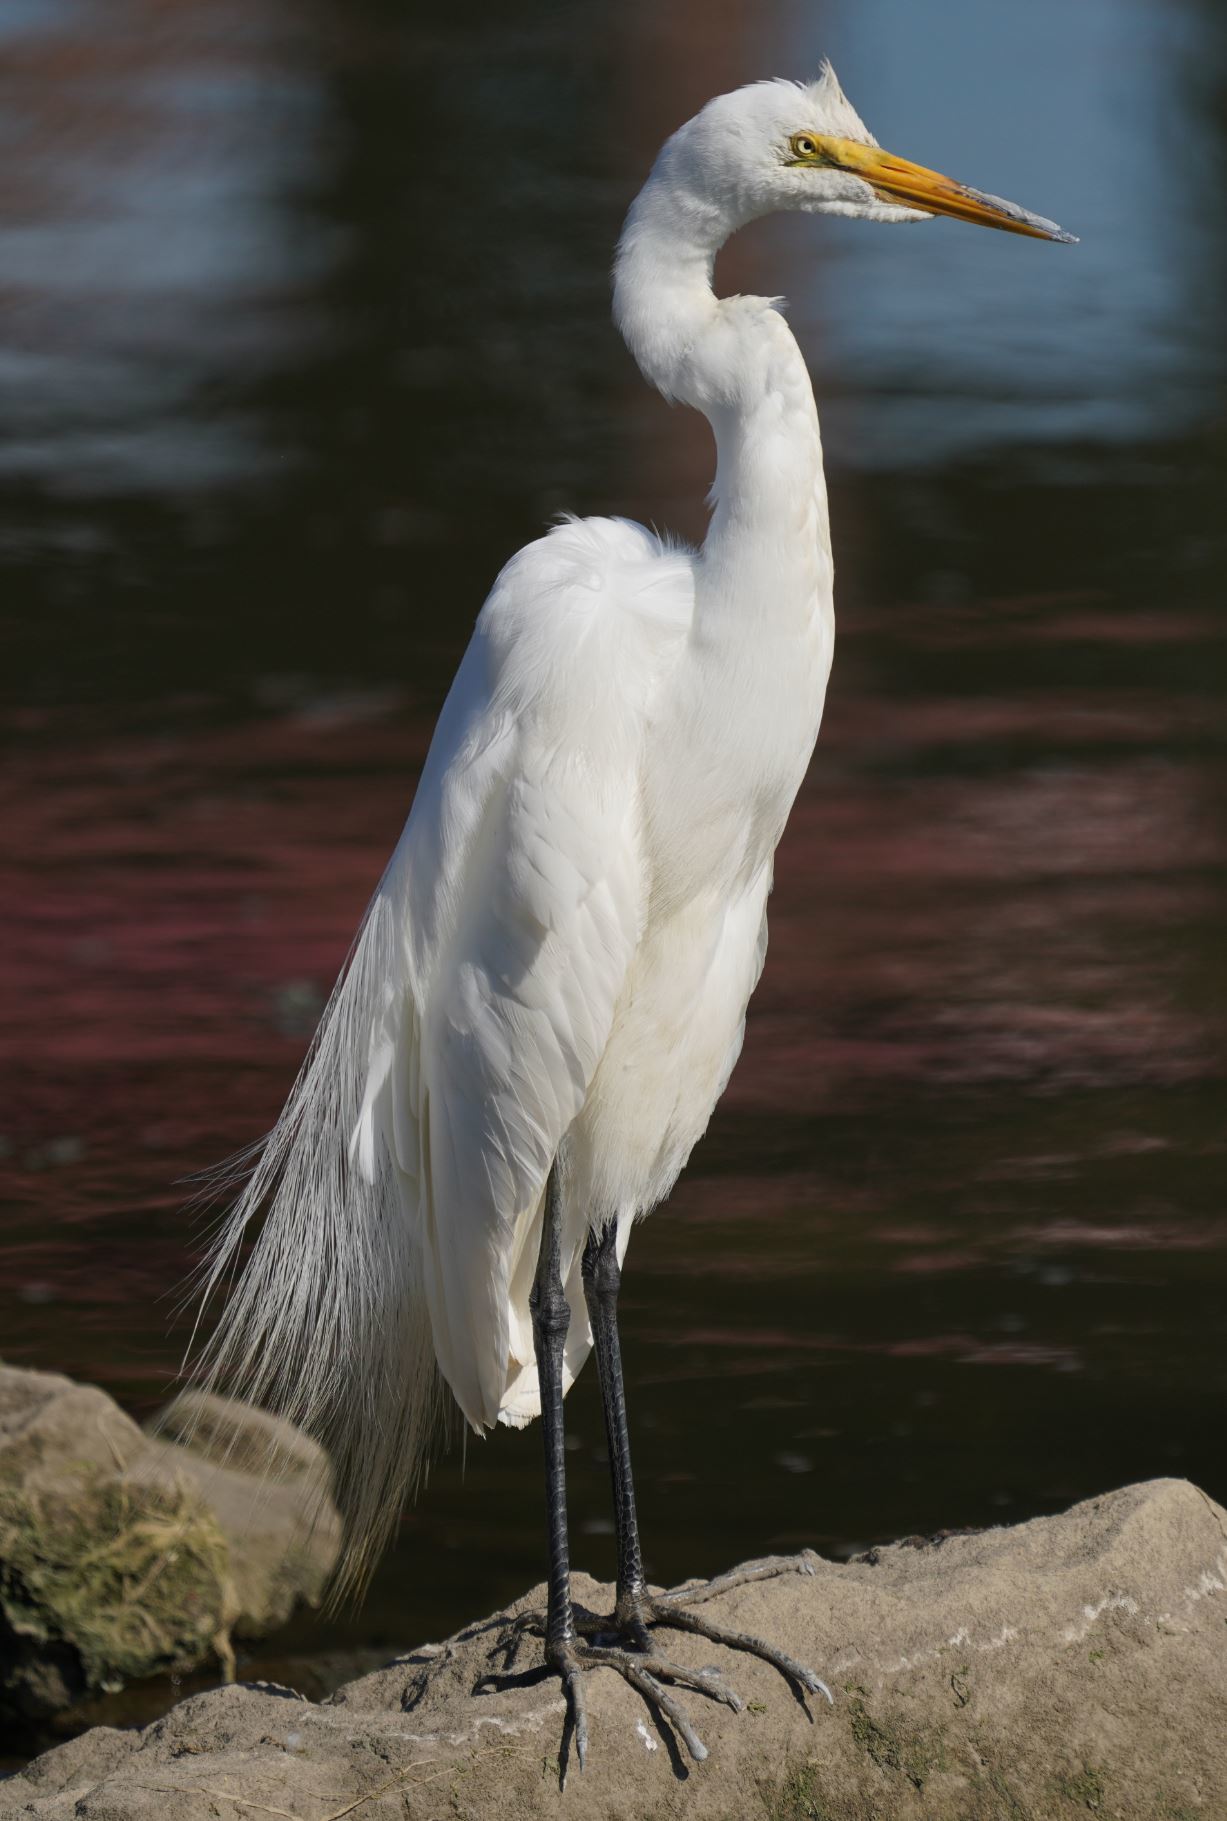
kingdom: Animalia
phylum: Chordata
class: Aves
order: Pelecaniformes
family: Ardeidae
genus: Ardea
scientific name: Ardea alba
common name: Great egret
